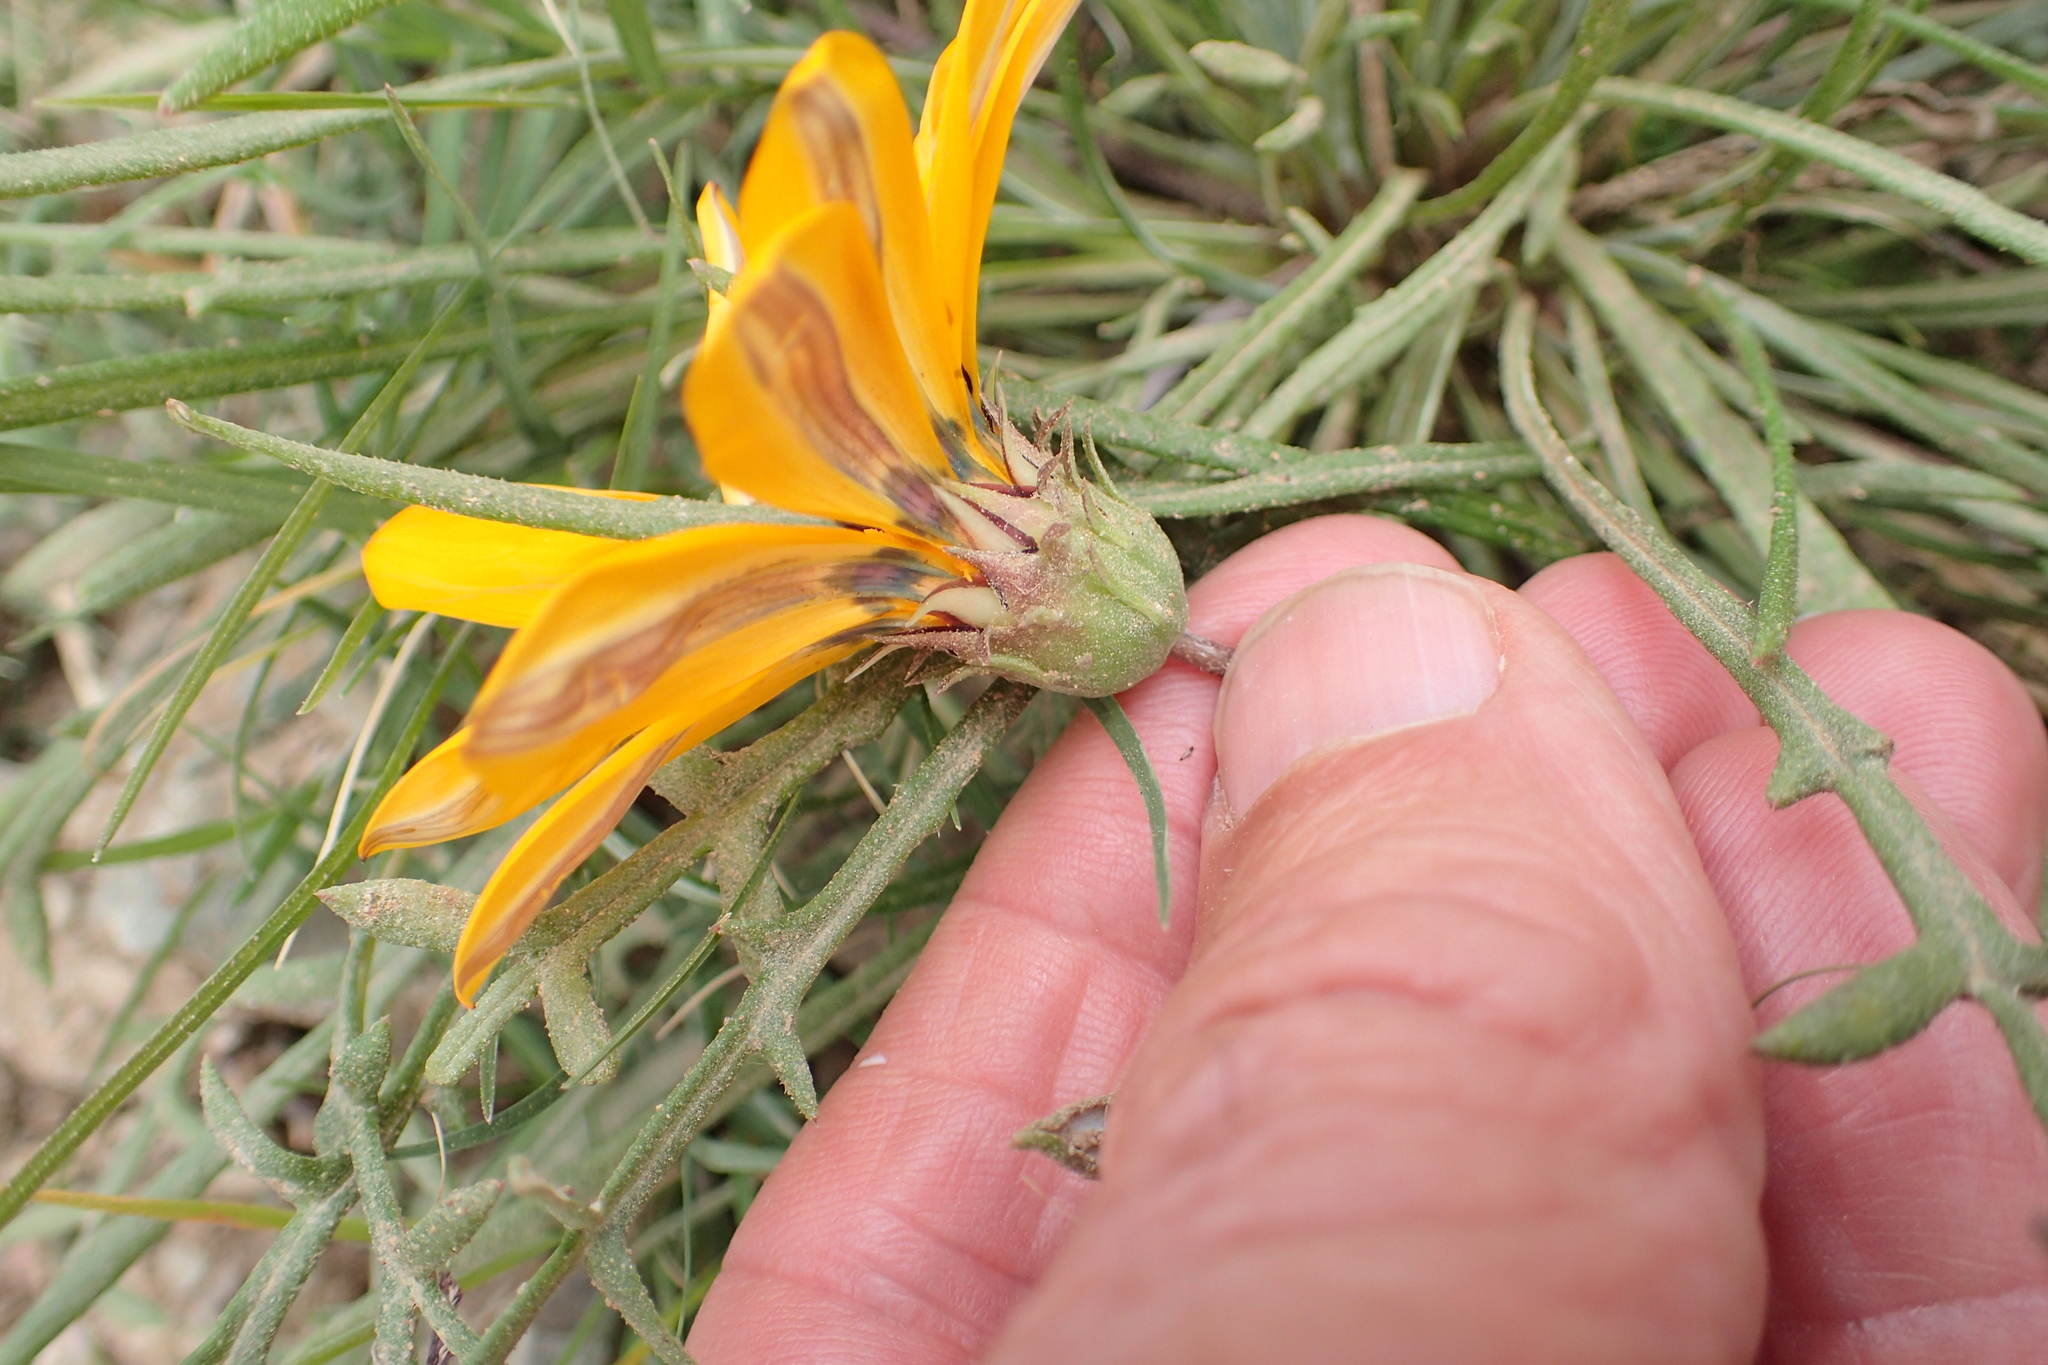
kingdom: Plantae
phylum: Tracheophyta
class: Magnoliopsida
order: Asterales
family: Asteraceae
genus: Gazania
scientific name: Gazania krebsiana
